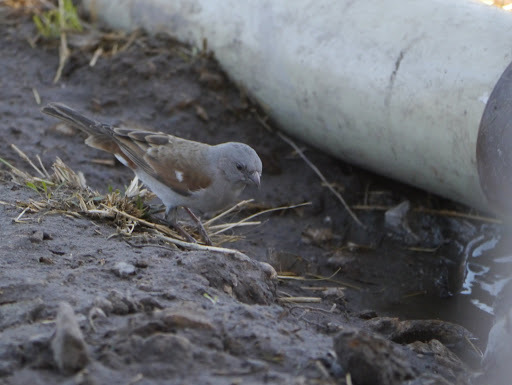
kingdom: Animalia
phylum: Chordata
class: Aves
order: Passeriformes
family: Passeridae
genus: Passer
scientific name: Passer diffusus
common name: Southern grey-headed sparrow
